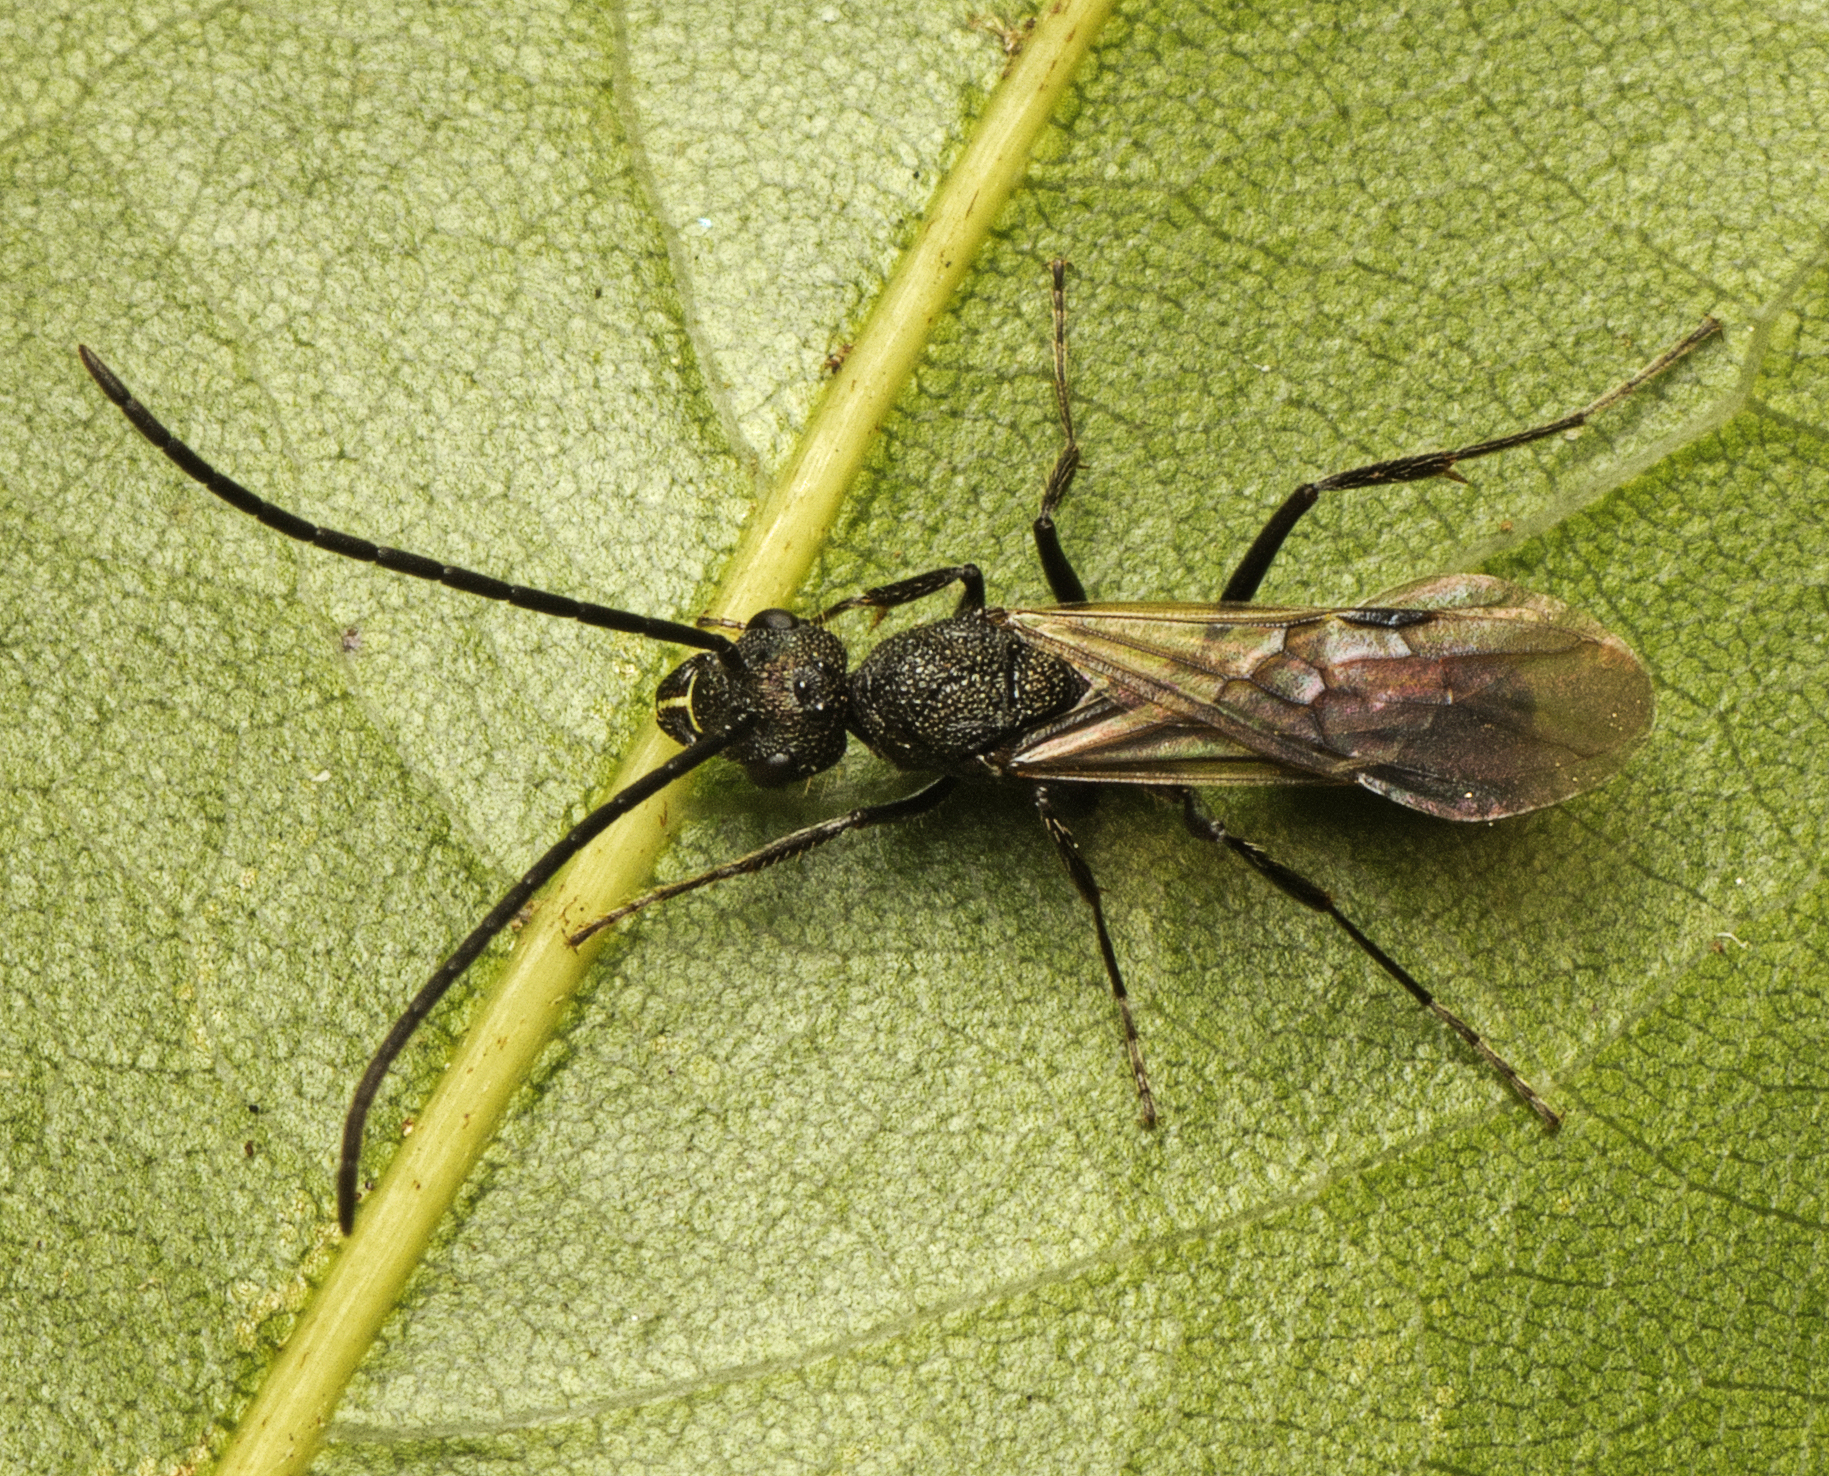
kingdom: Animalia
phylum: Arthropoda
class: Insecta
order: Hymenoptera
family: Formicidae
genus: Rhytidoponera
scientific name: Rhytidoponera metallica
